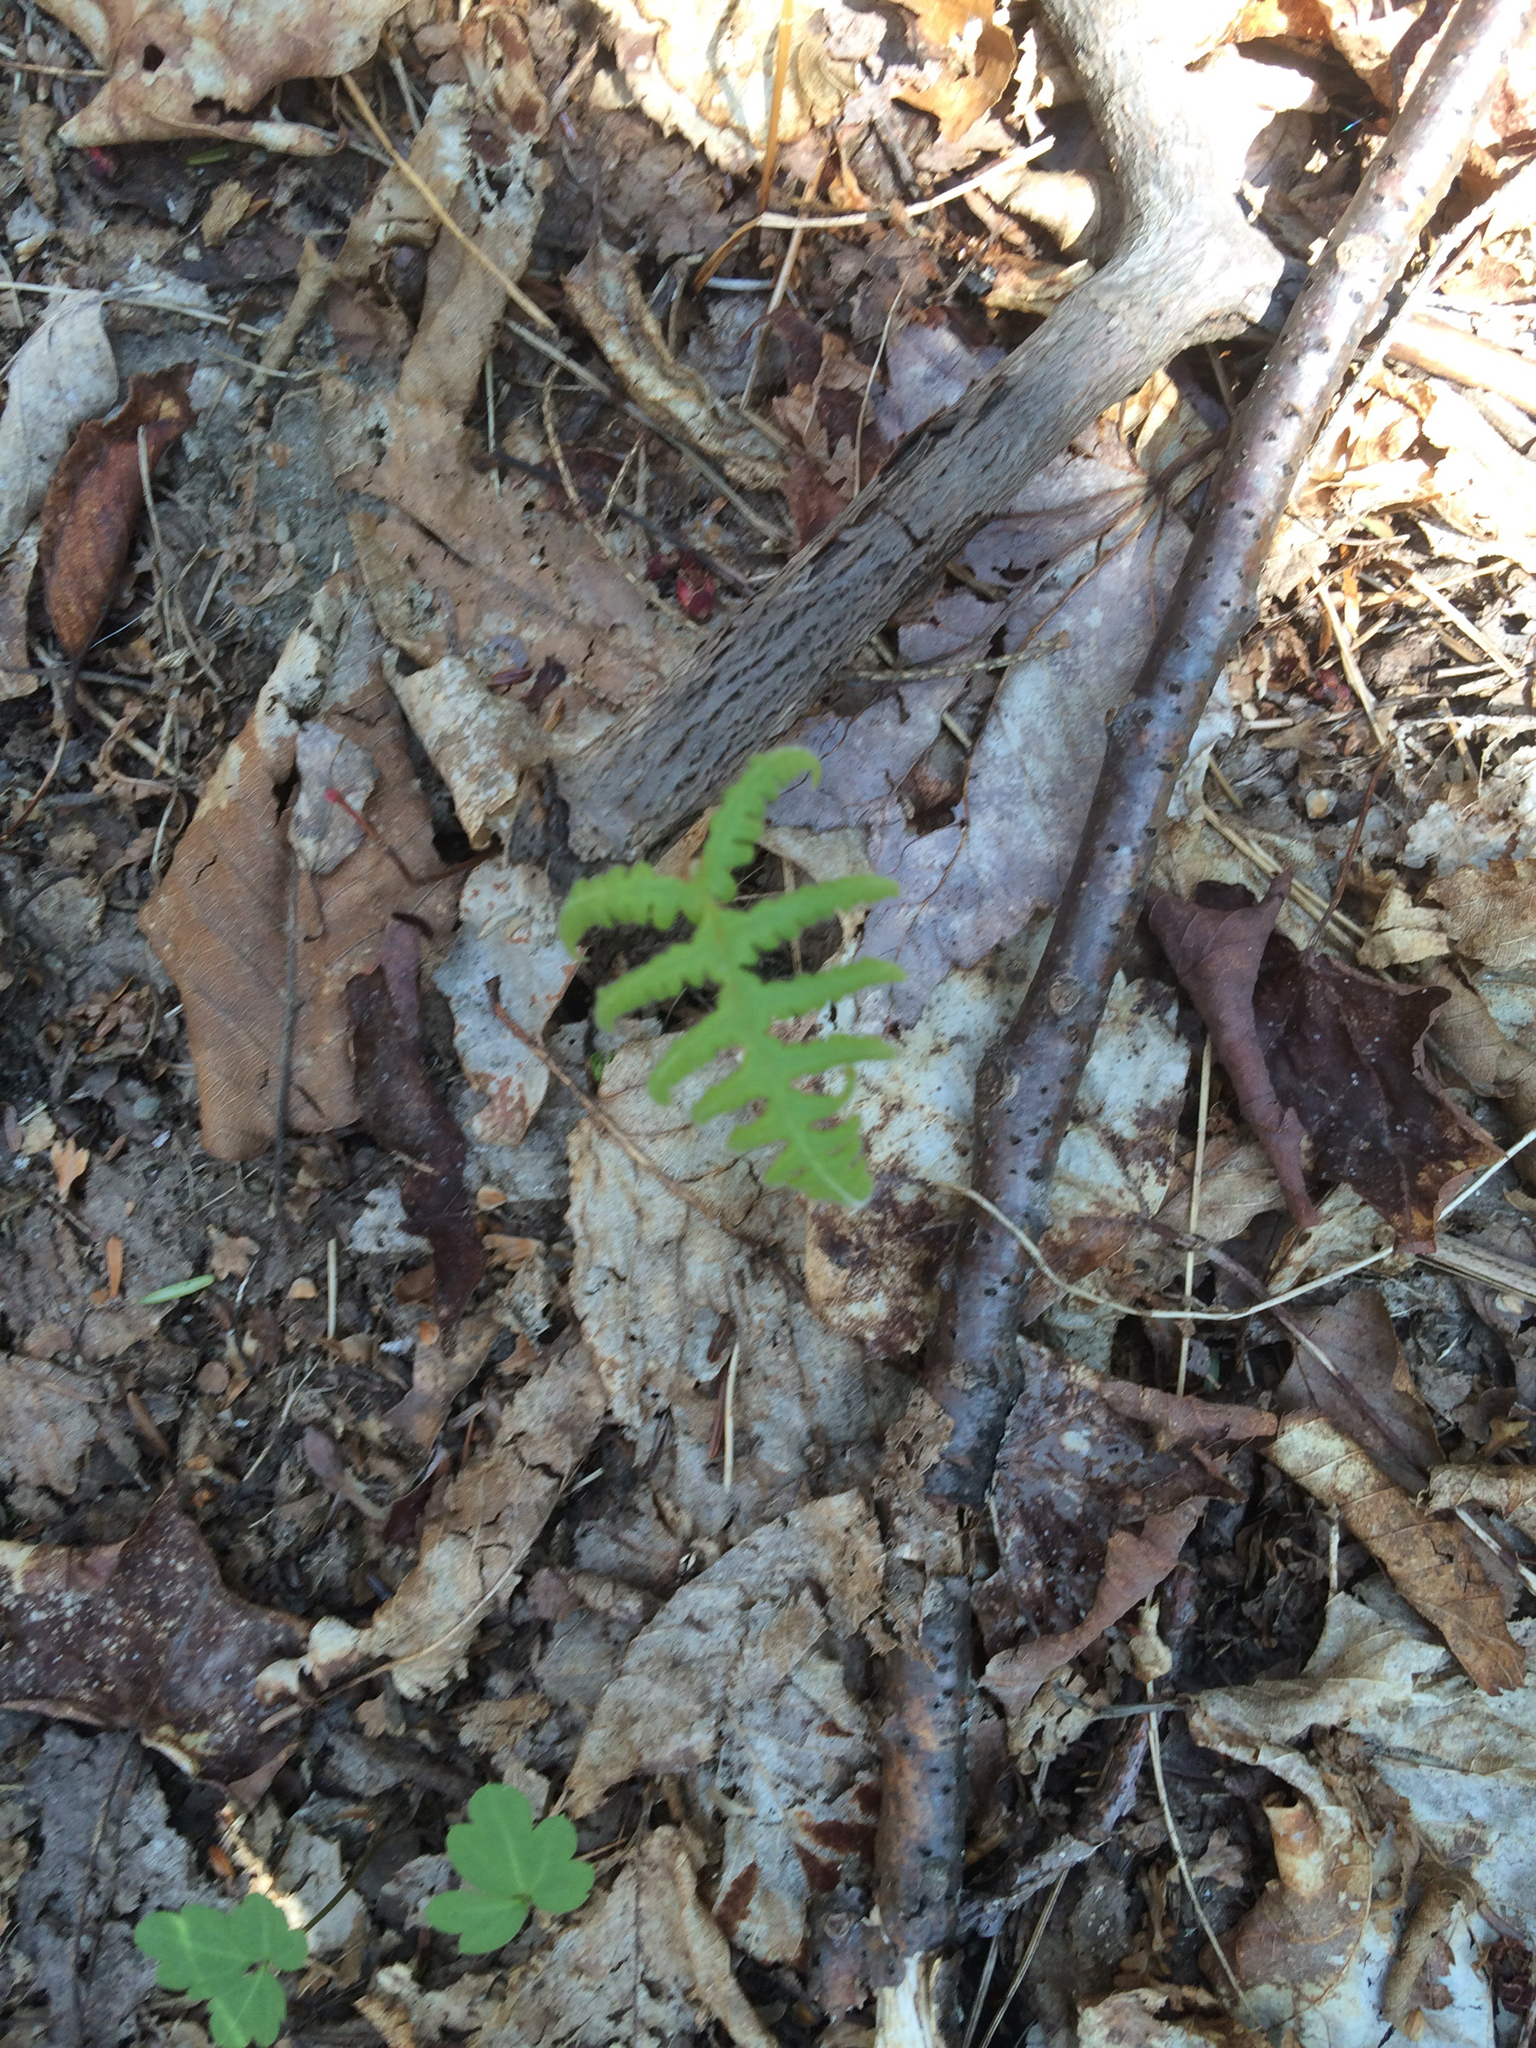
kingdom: Plantae
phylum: Tracheophyta
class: Polypodiopsida
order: Polypodiales
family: Thelypteridaceae
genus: Phegopteris
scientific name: Phegopteris connectilis
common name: Beech fern
